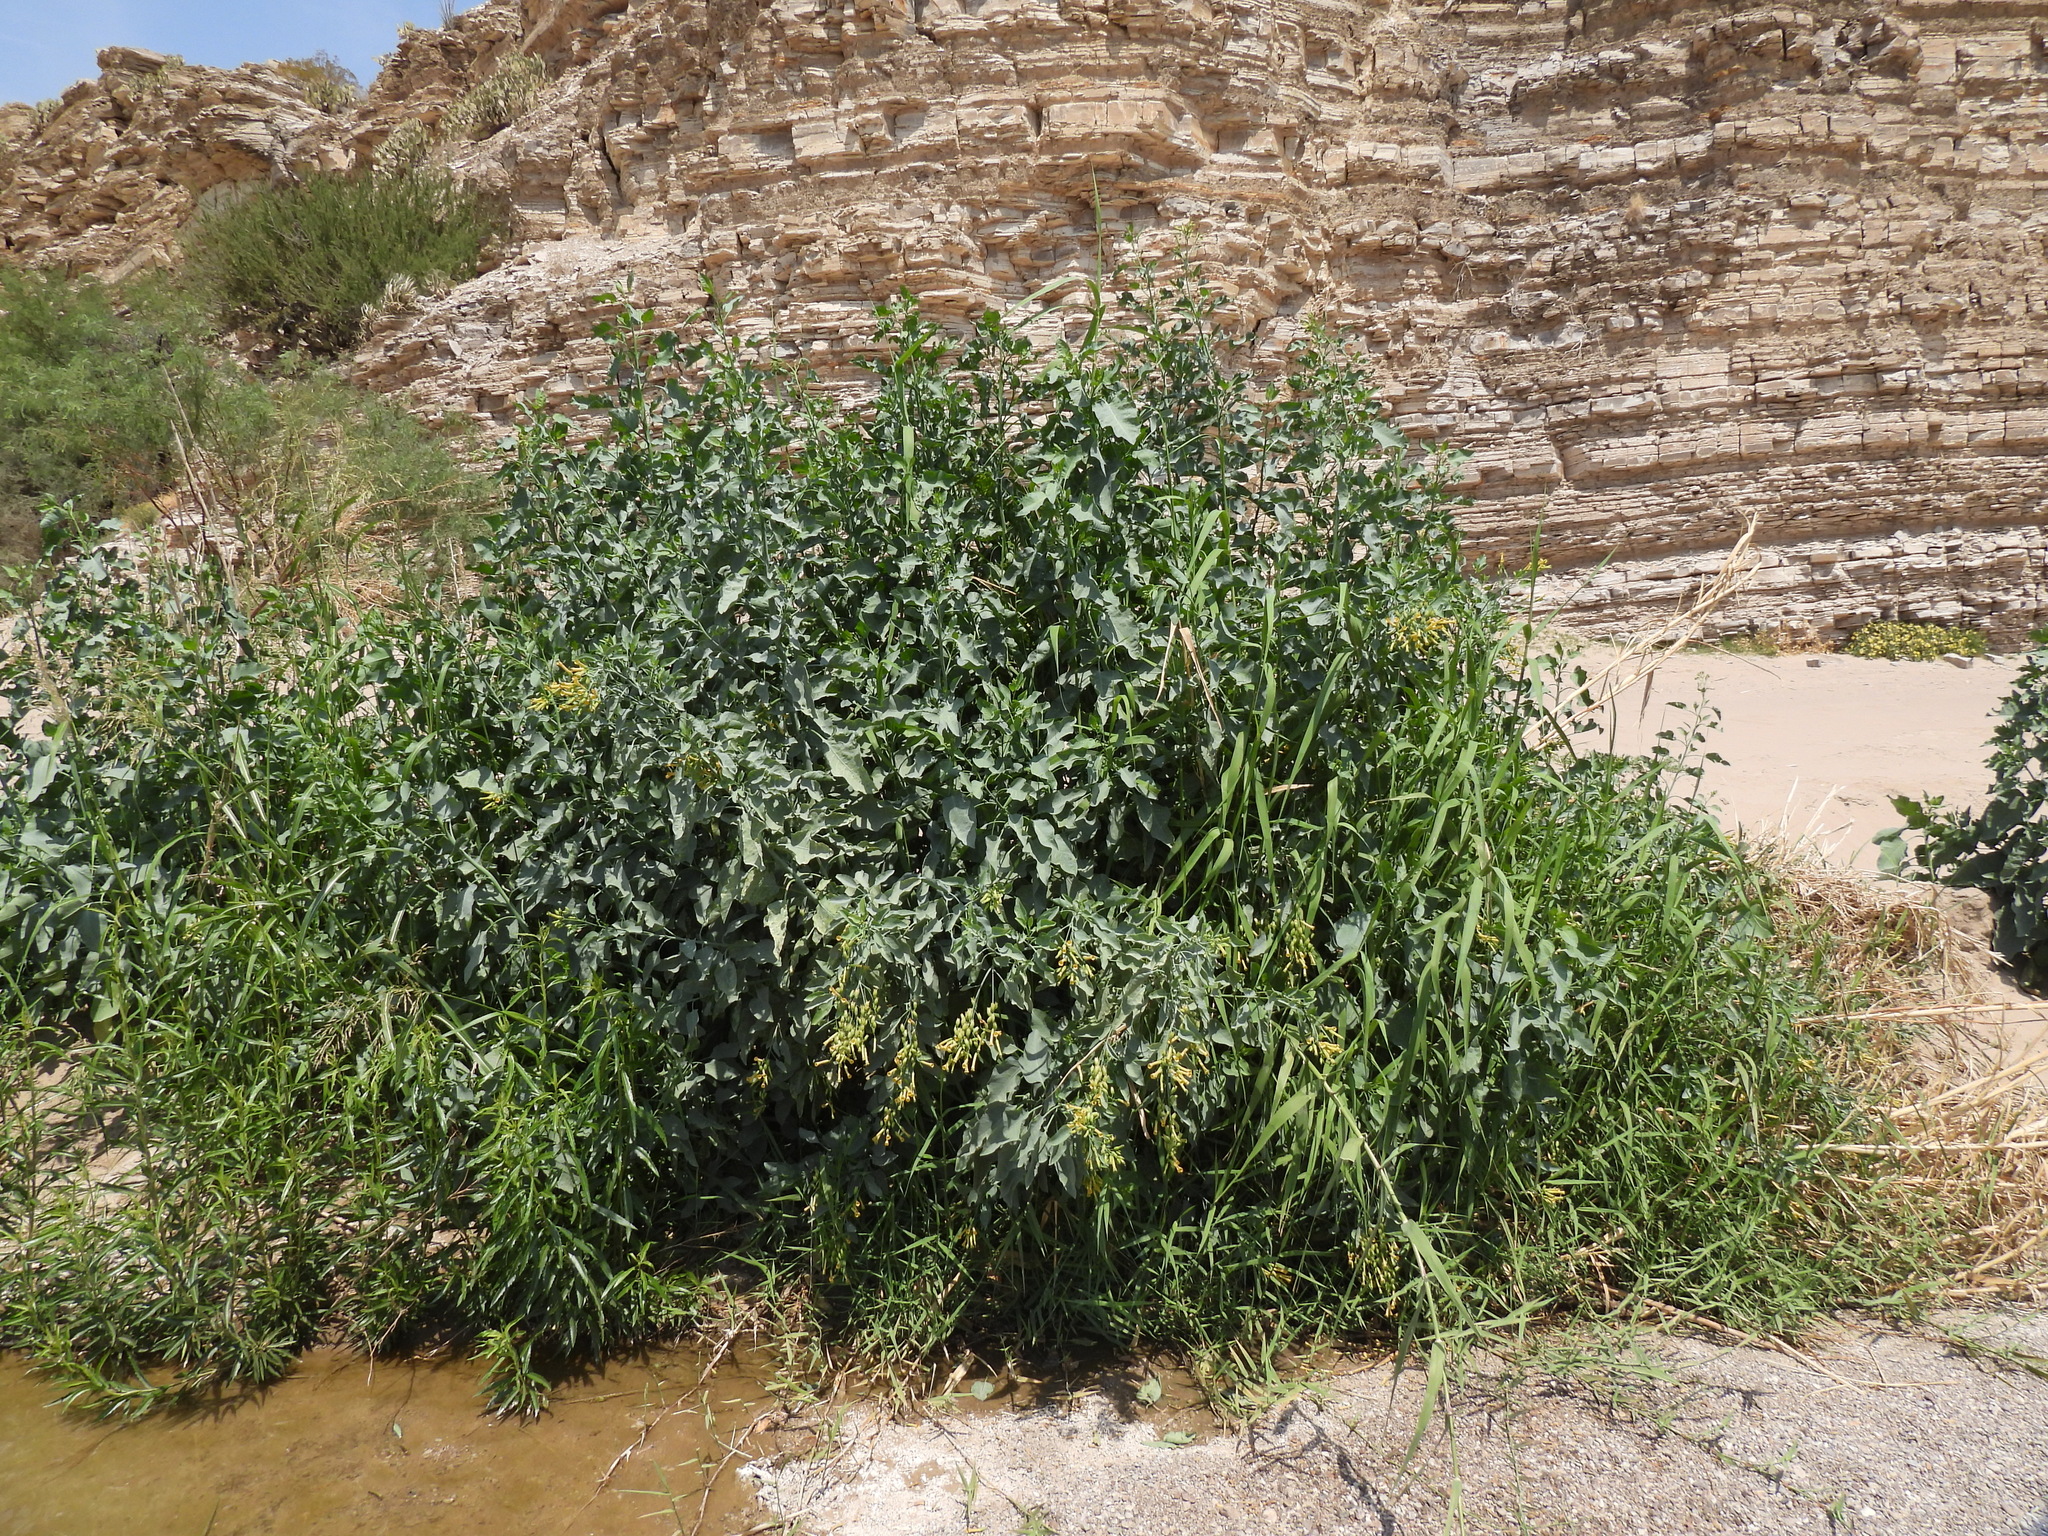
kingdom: Plantae
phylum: Tracheophyta
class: Magnoliopsida
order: Solanales
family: Solanaceae
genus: Nicotiana
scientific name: Nicotiana glauca
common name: Tree tobacco
